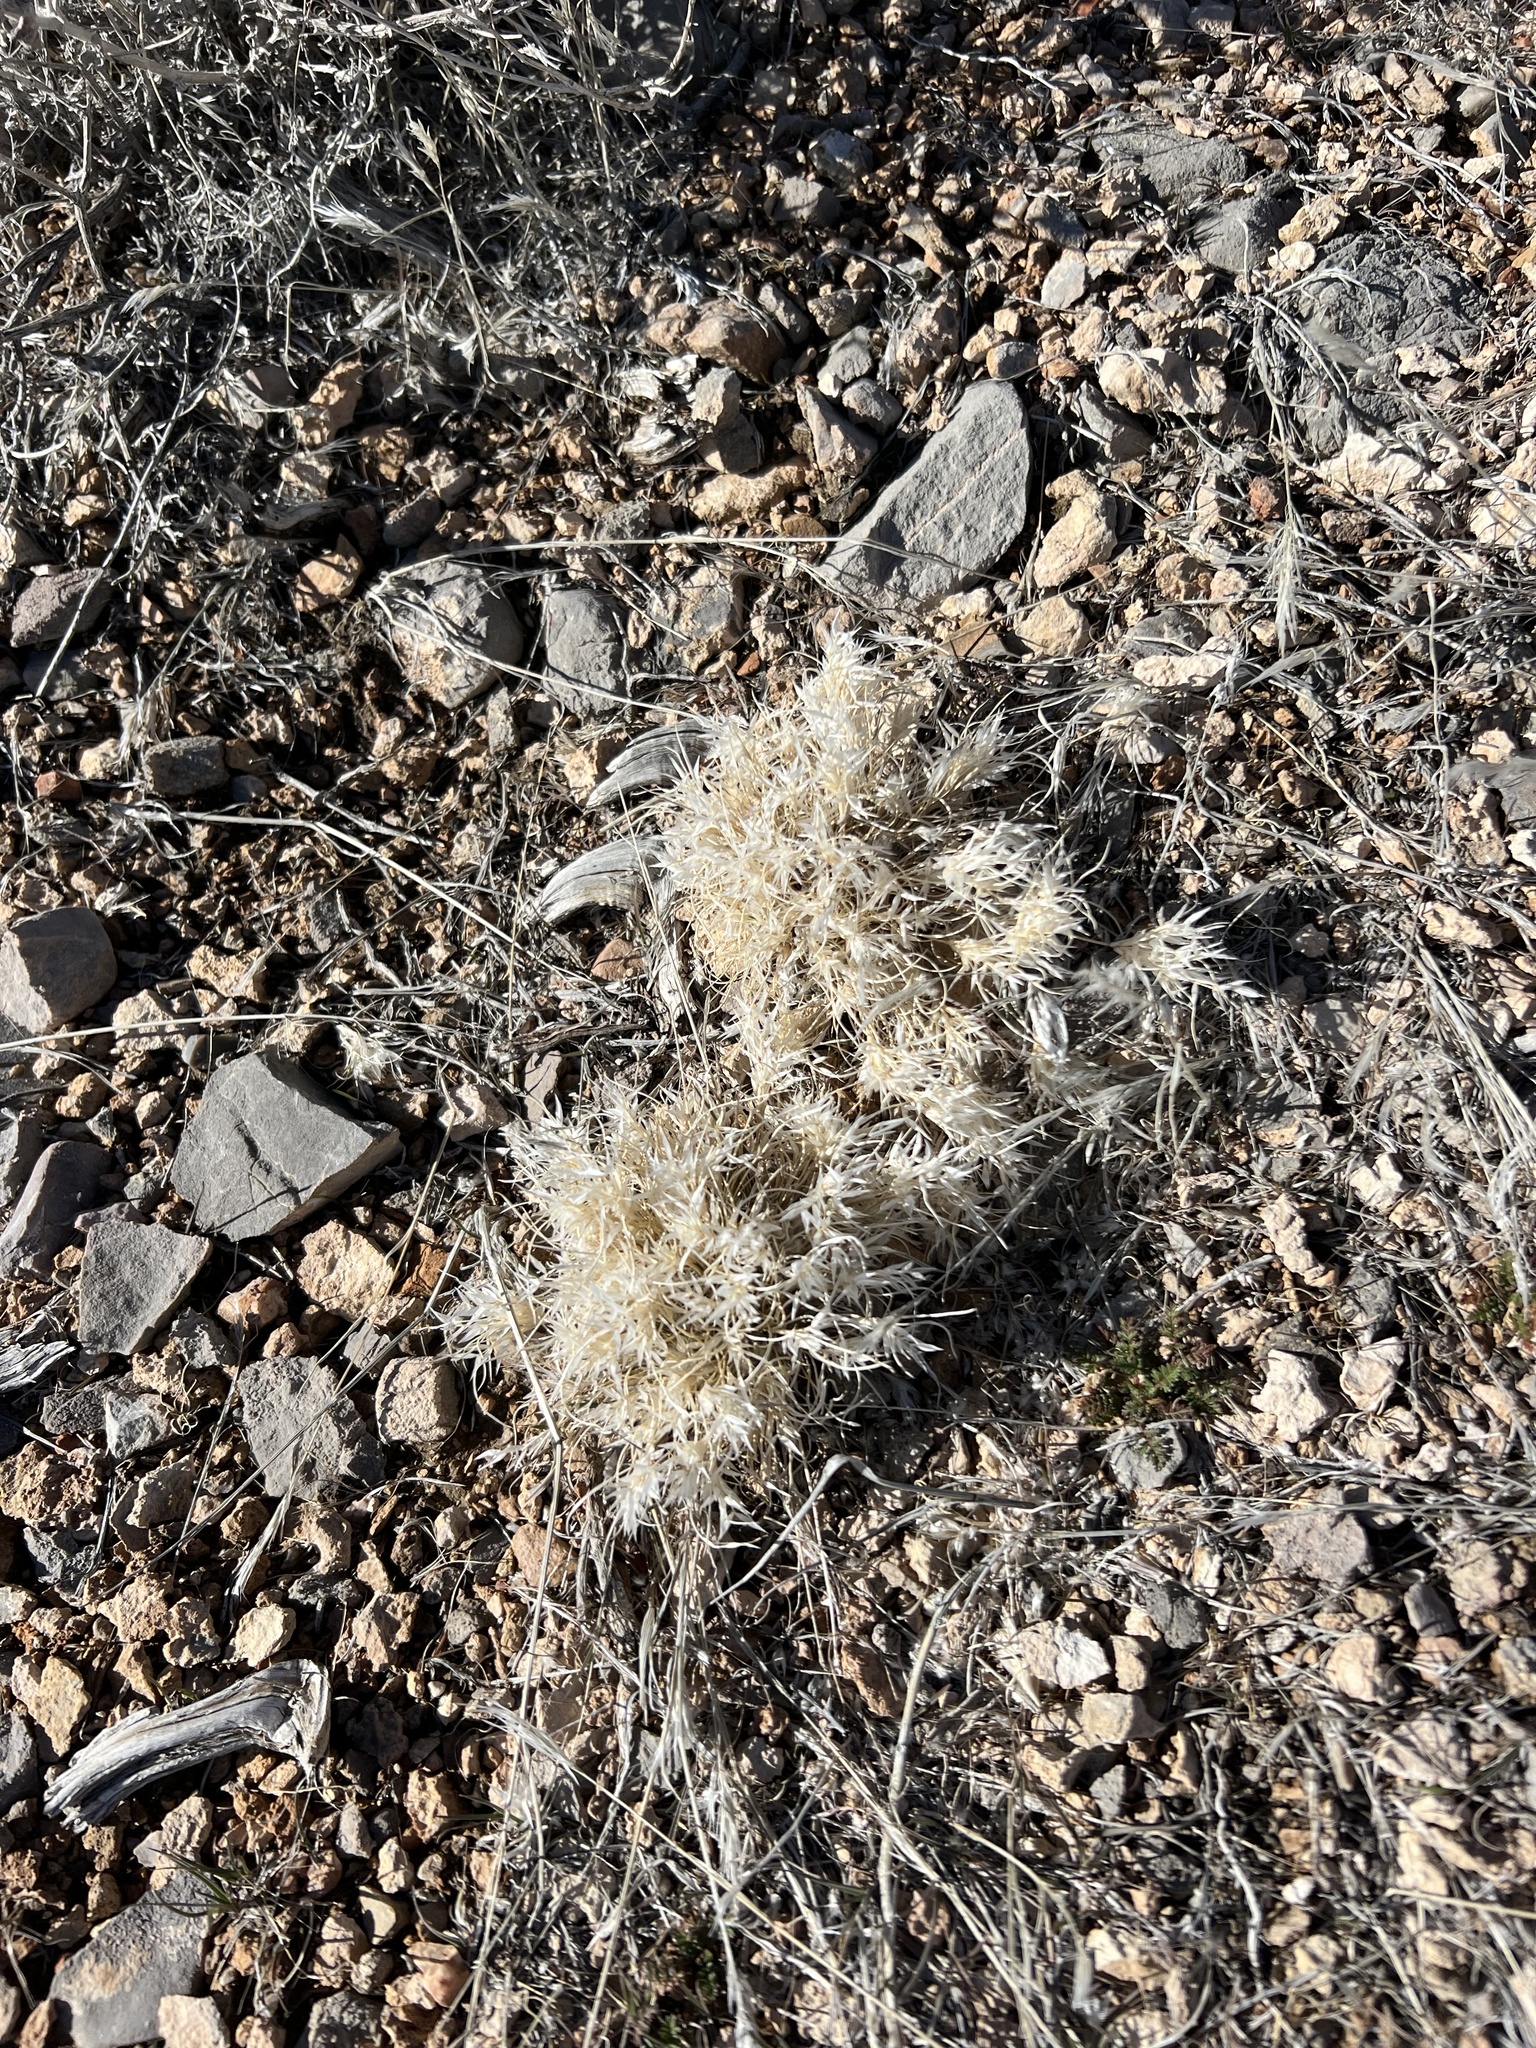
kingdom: Plantae
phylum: Tracheophyta
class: Liliopsida
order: Poales
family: Poaceae
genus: Dasyochloa
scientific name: Dasyochloa pulchella
